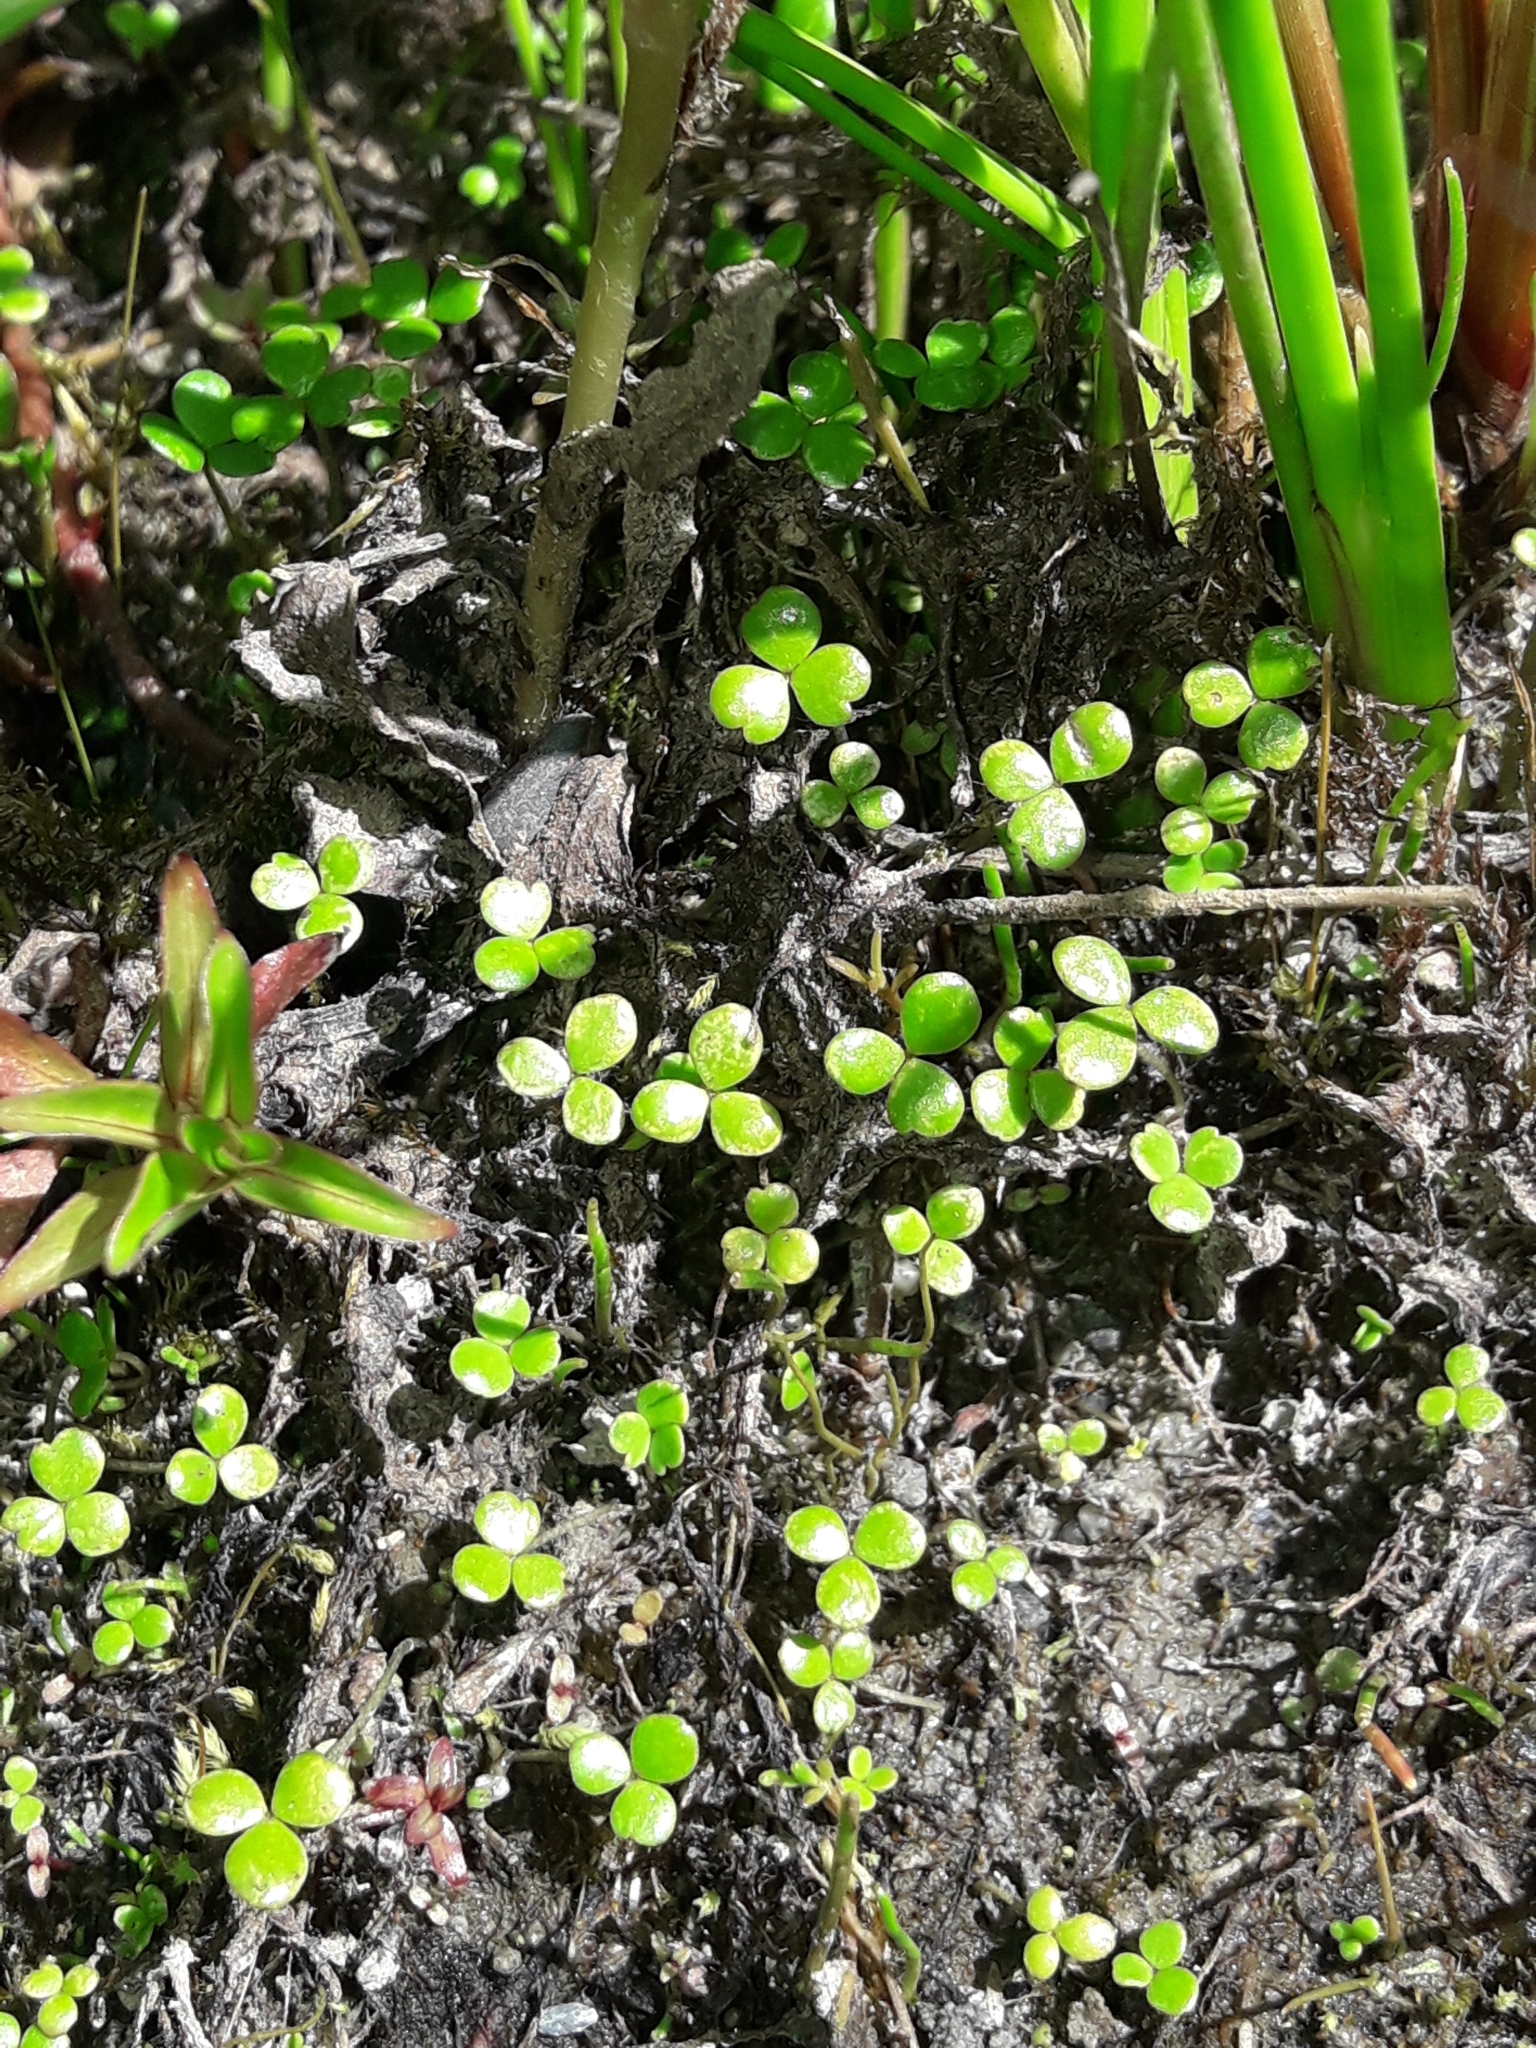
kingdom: Plantae
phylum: Tracheophyta
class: Magnoliopsida
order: Apiales
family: Araliaceae
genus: Hydrocotyle
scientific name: Hydrocotyle hydrophila
